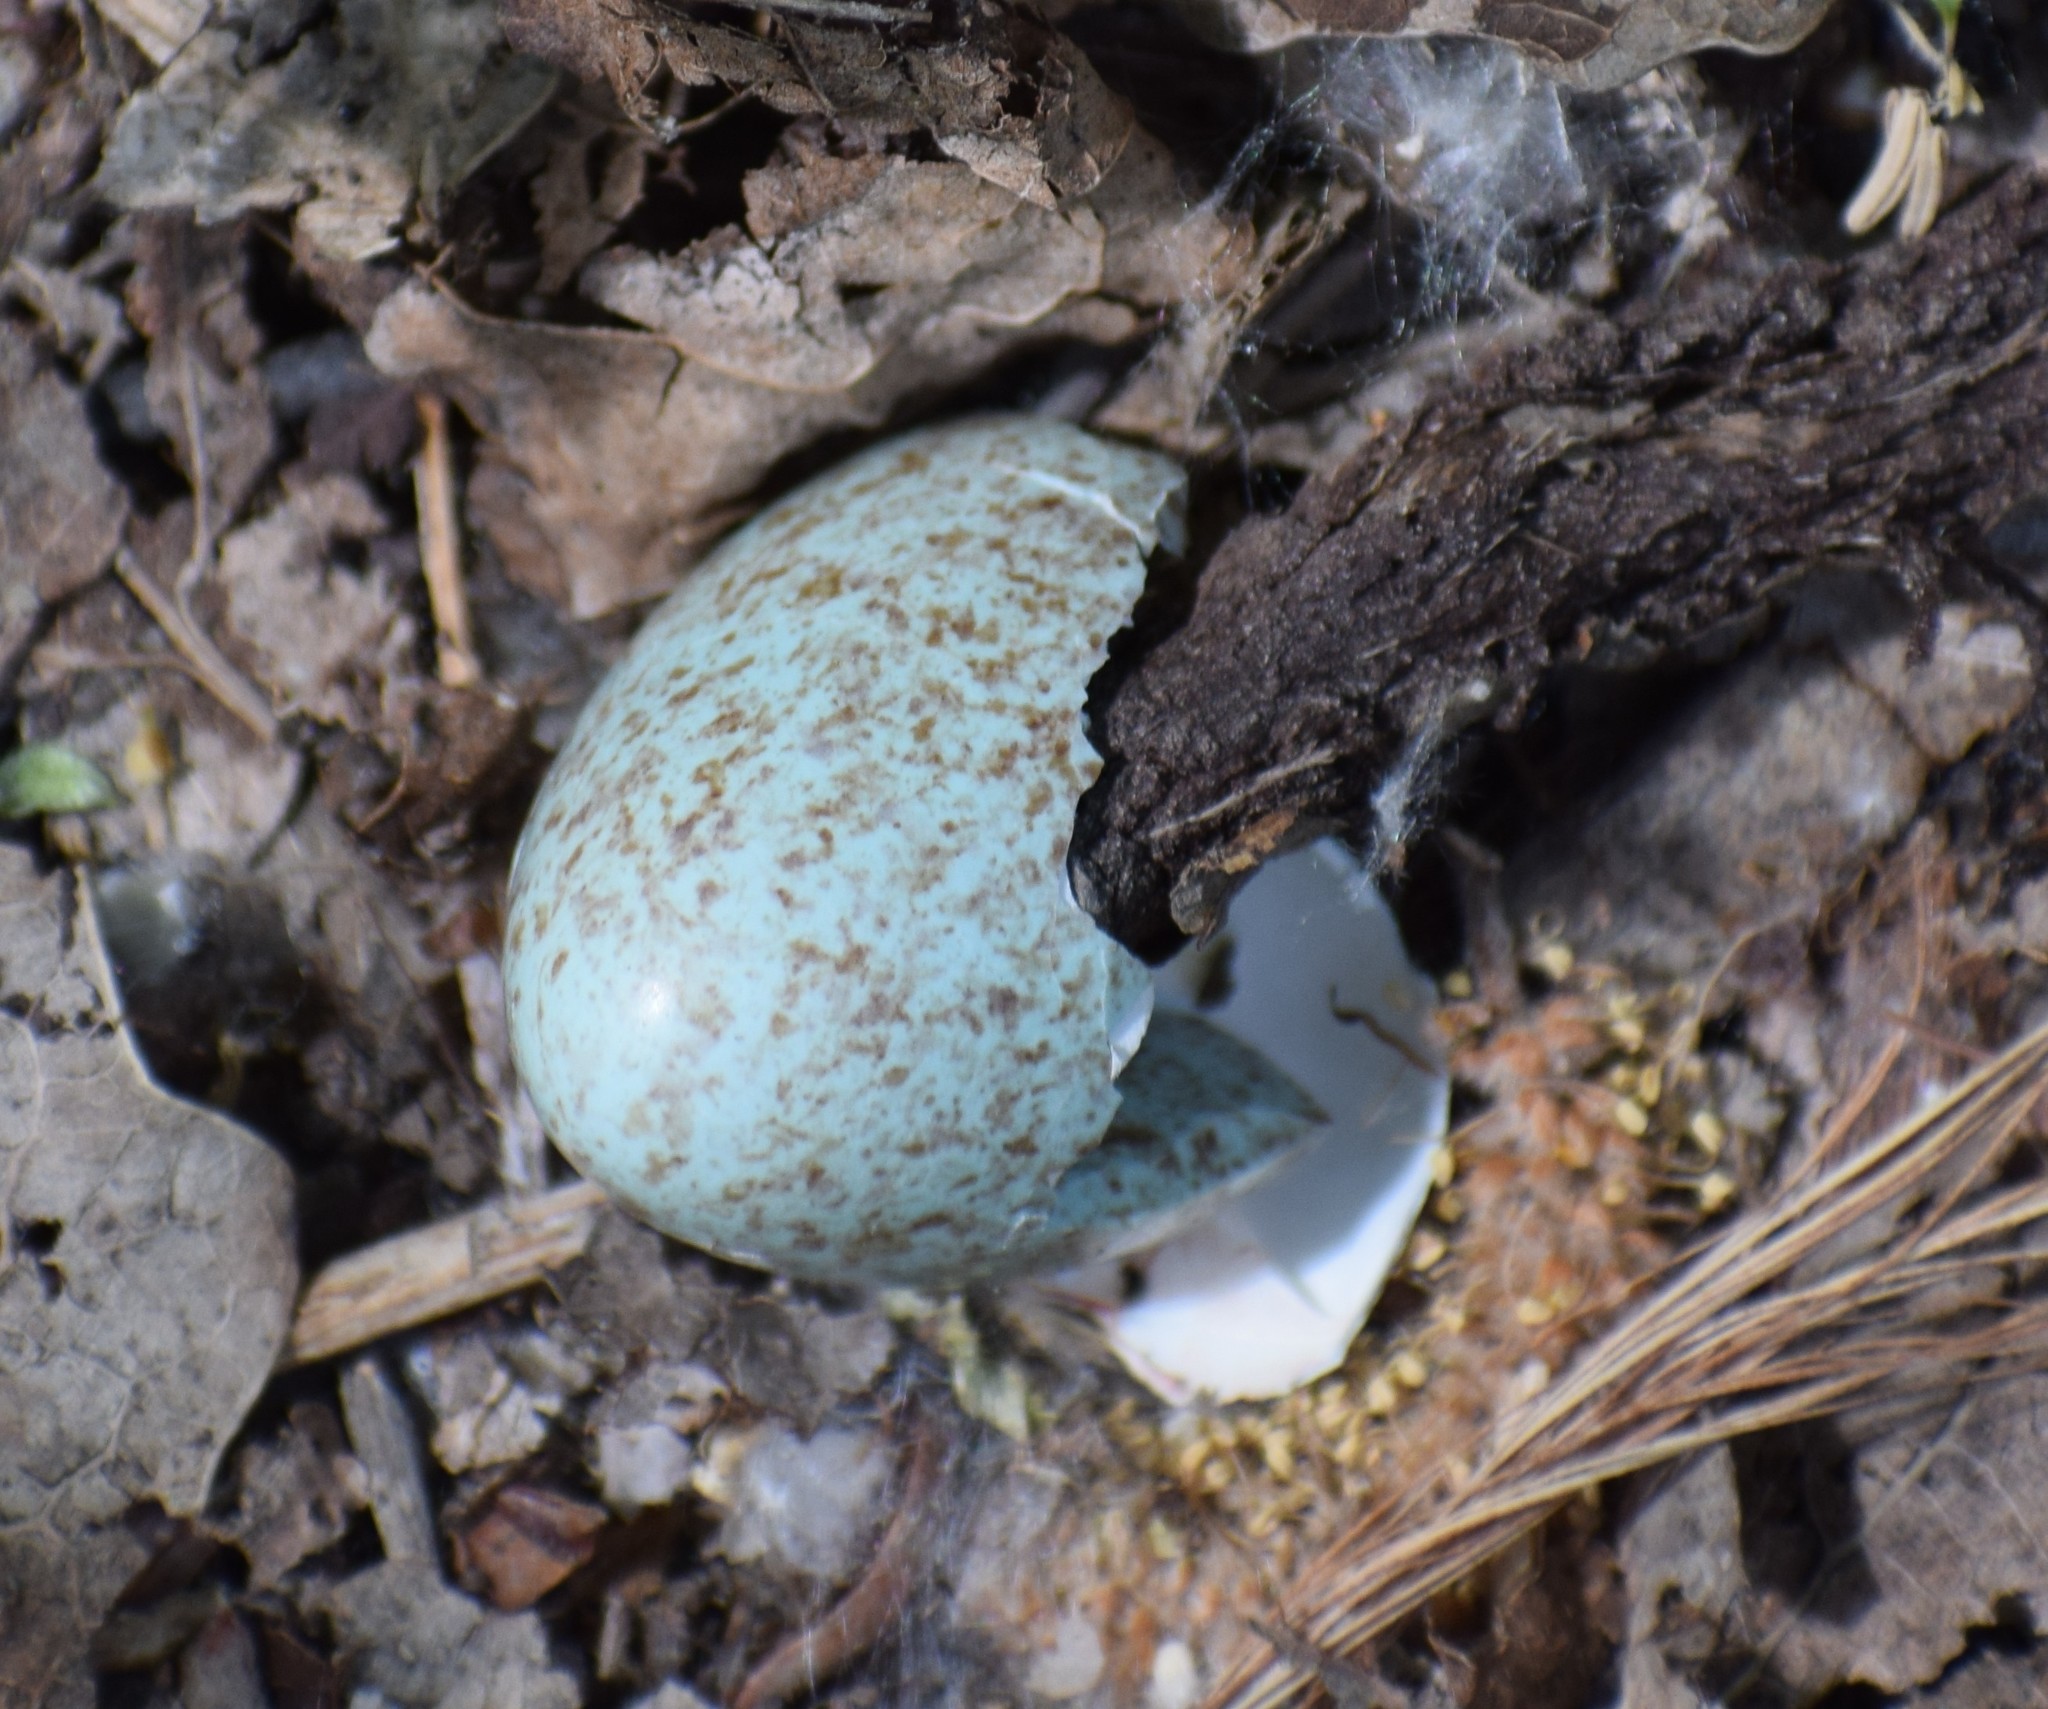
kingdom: Animalia
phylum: Chordata
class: Aves
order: Passeriformes
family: Turdidae
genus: Turdus
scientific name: Turdus merula
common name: Common blackbird
